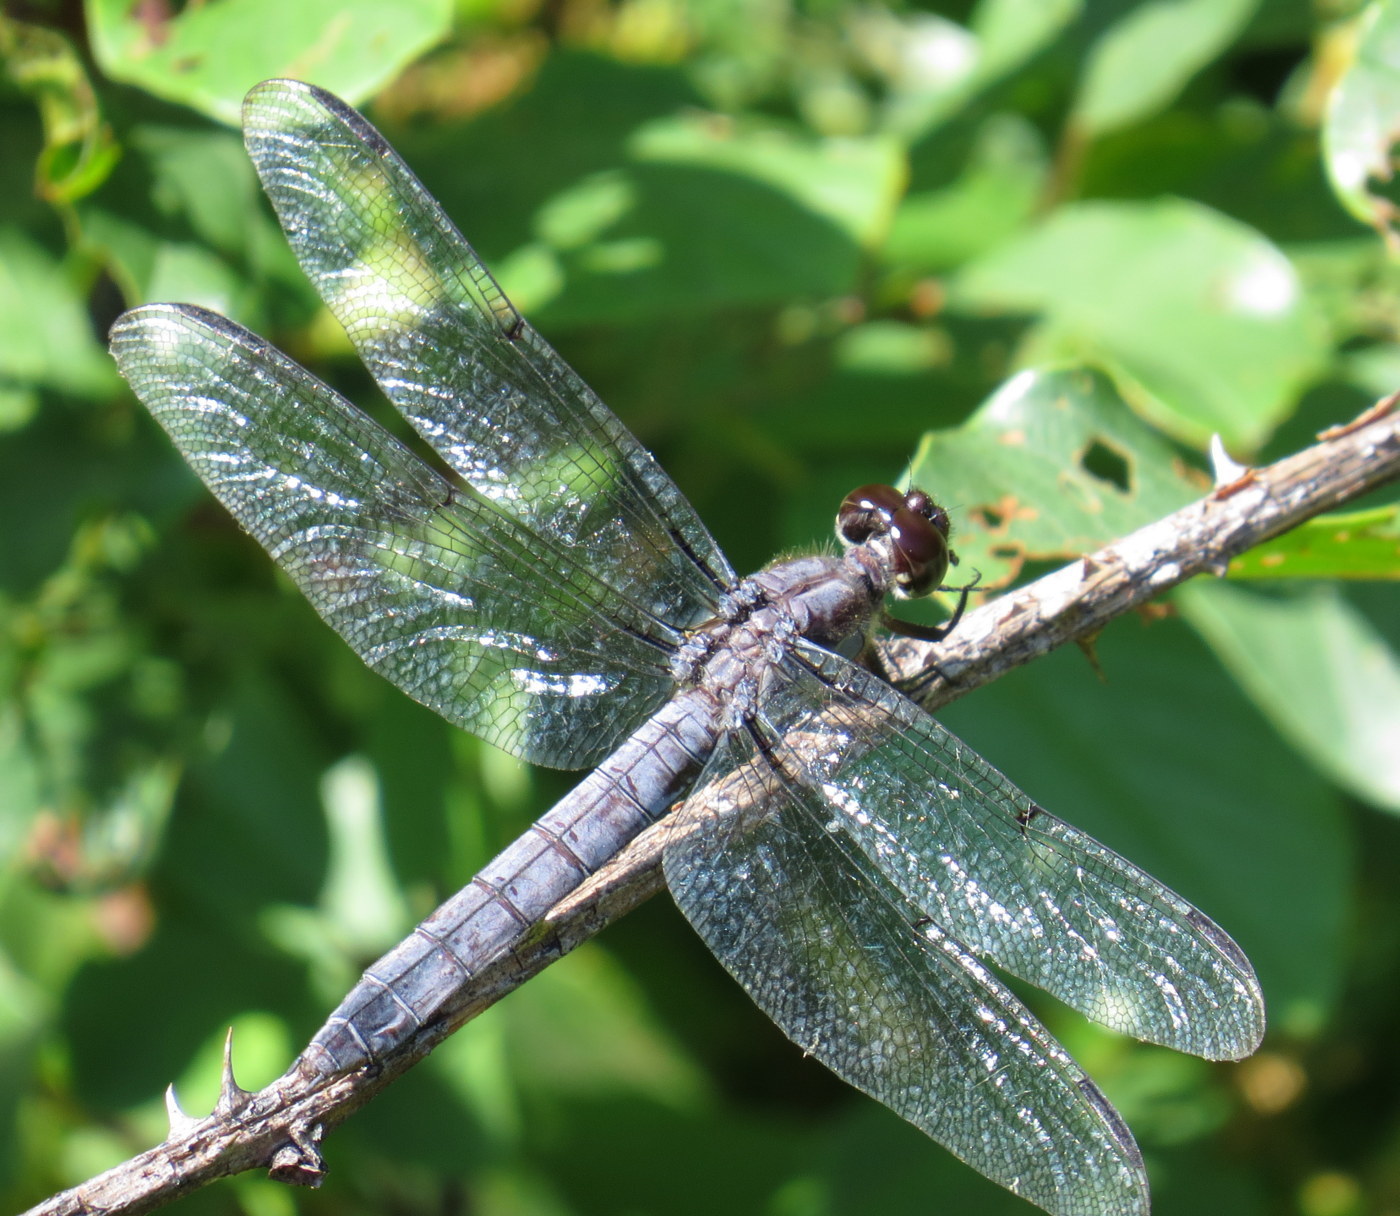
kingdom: Animalia
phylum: Arthropoda
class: Insecta
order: Odonata
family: Libellulidae
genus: Libellula
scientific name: Libellula incesta
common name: Slaty skimmer
